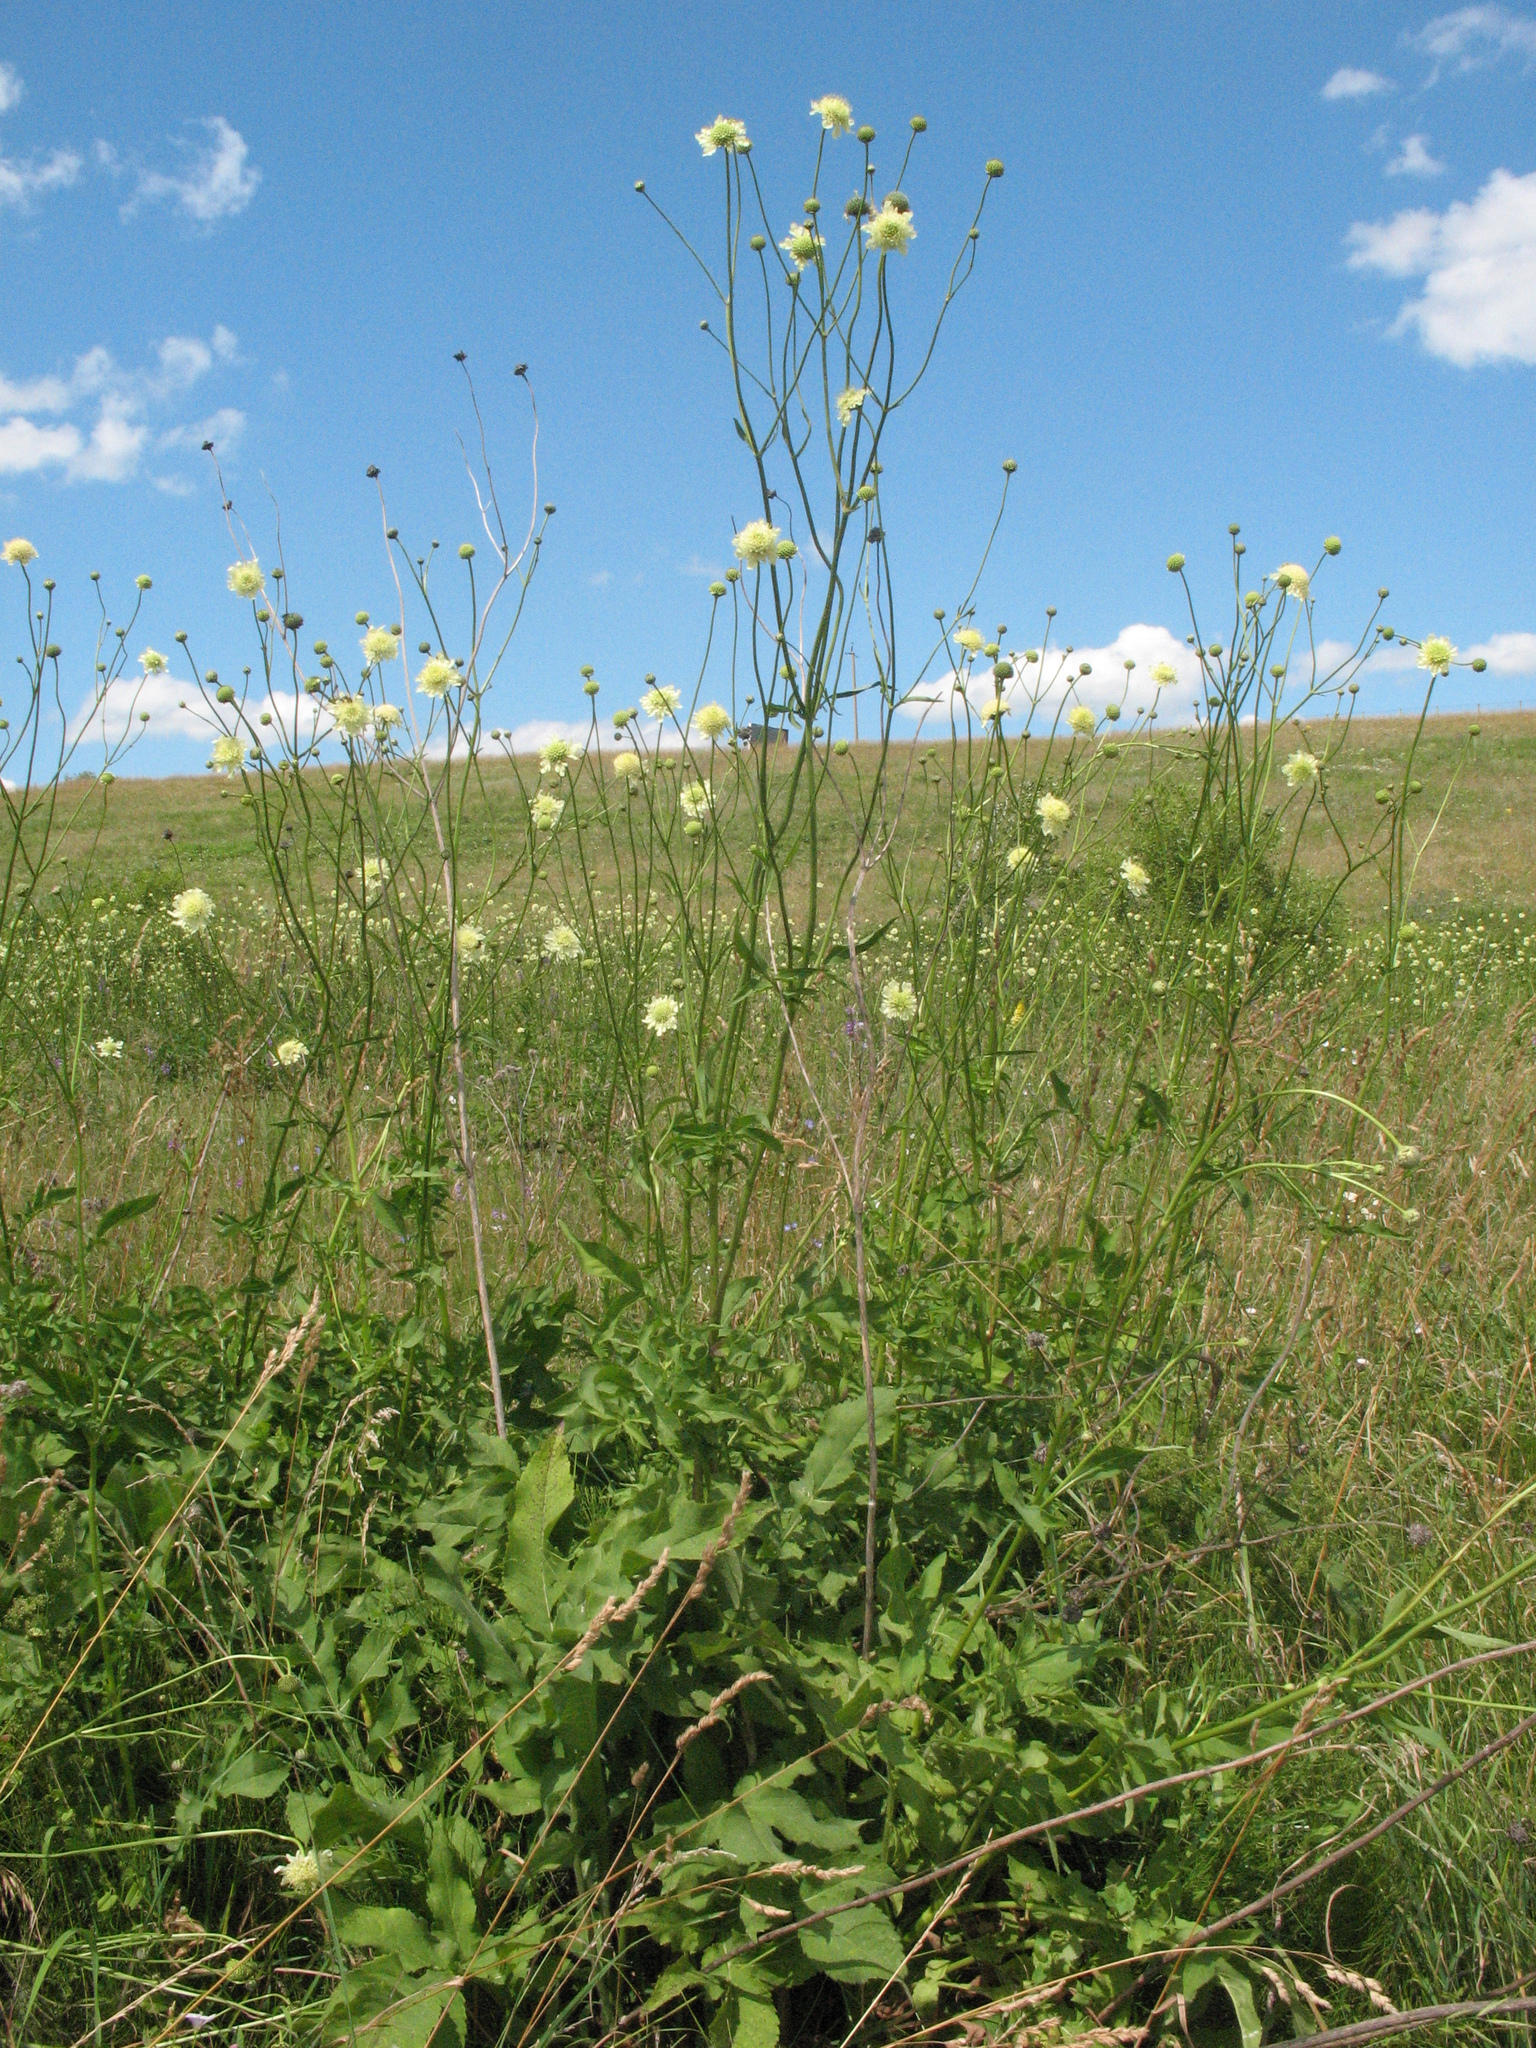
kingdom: Plantae
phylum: Tracheophyta
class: Magnoliopsida
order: Dipsacales
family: Caprifoliaceae
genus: Cephalaria
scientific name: Cephalaria litvinovii
